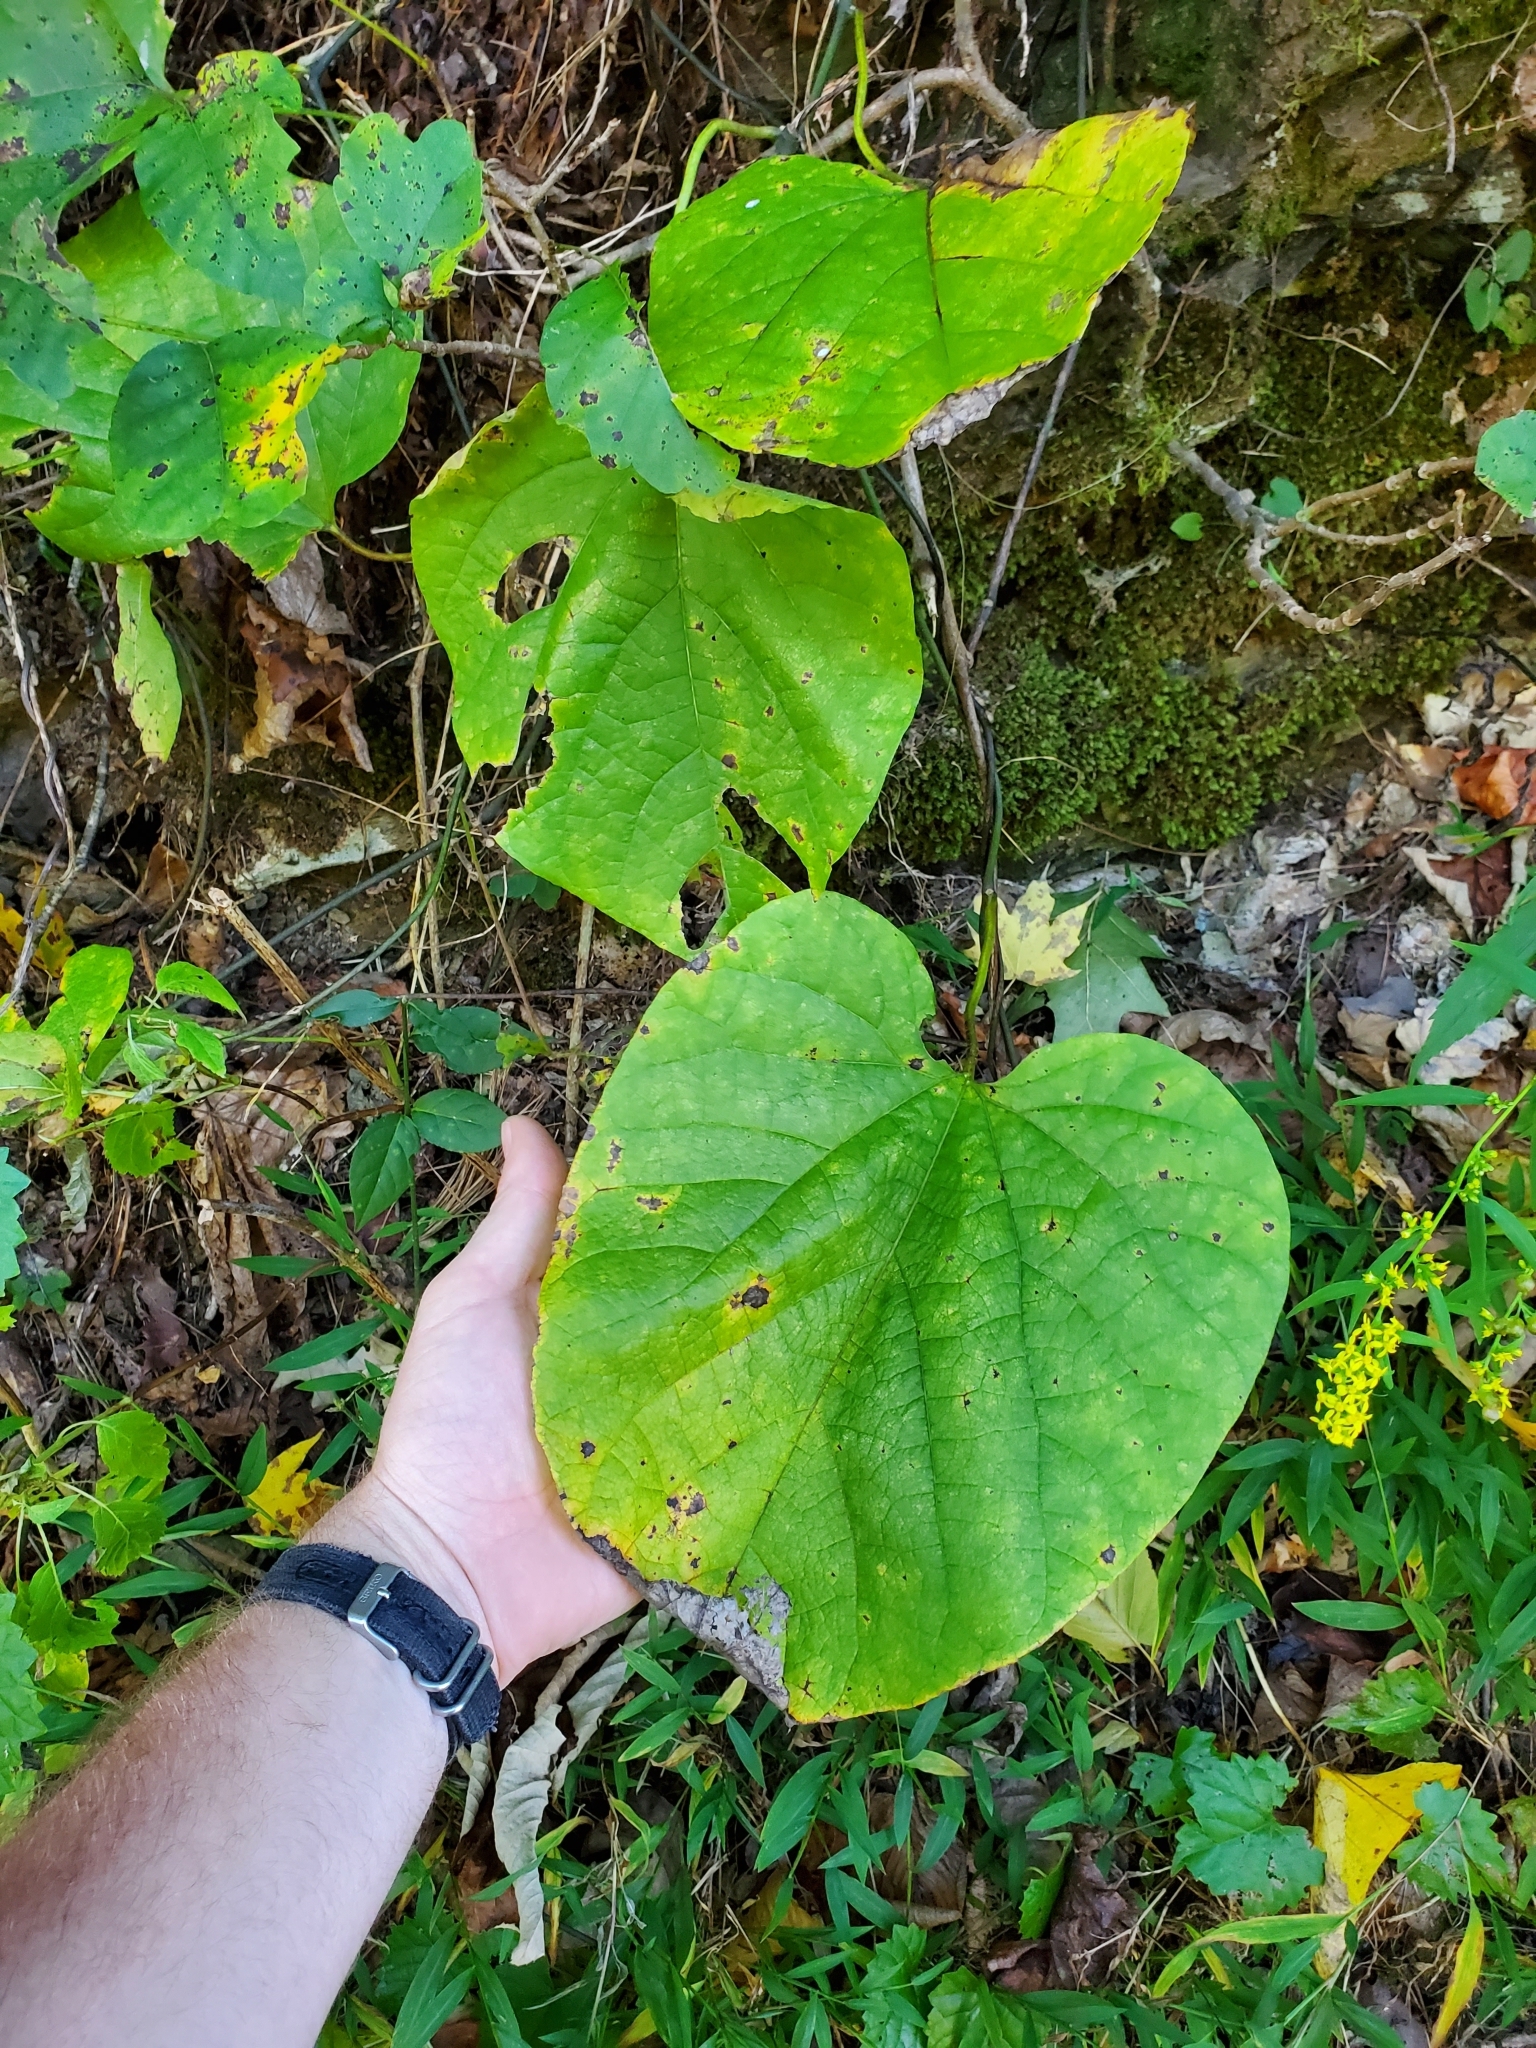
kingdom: Plantae
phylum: Tracheophyta
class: Magnoliopsida
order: Piperales
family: Aristolochiaceae
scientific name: Aristolochiaceae
